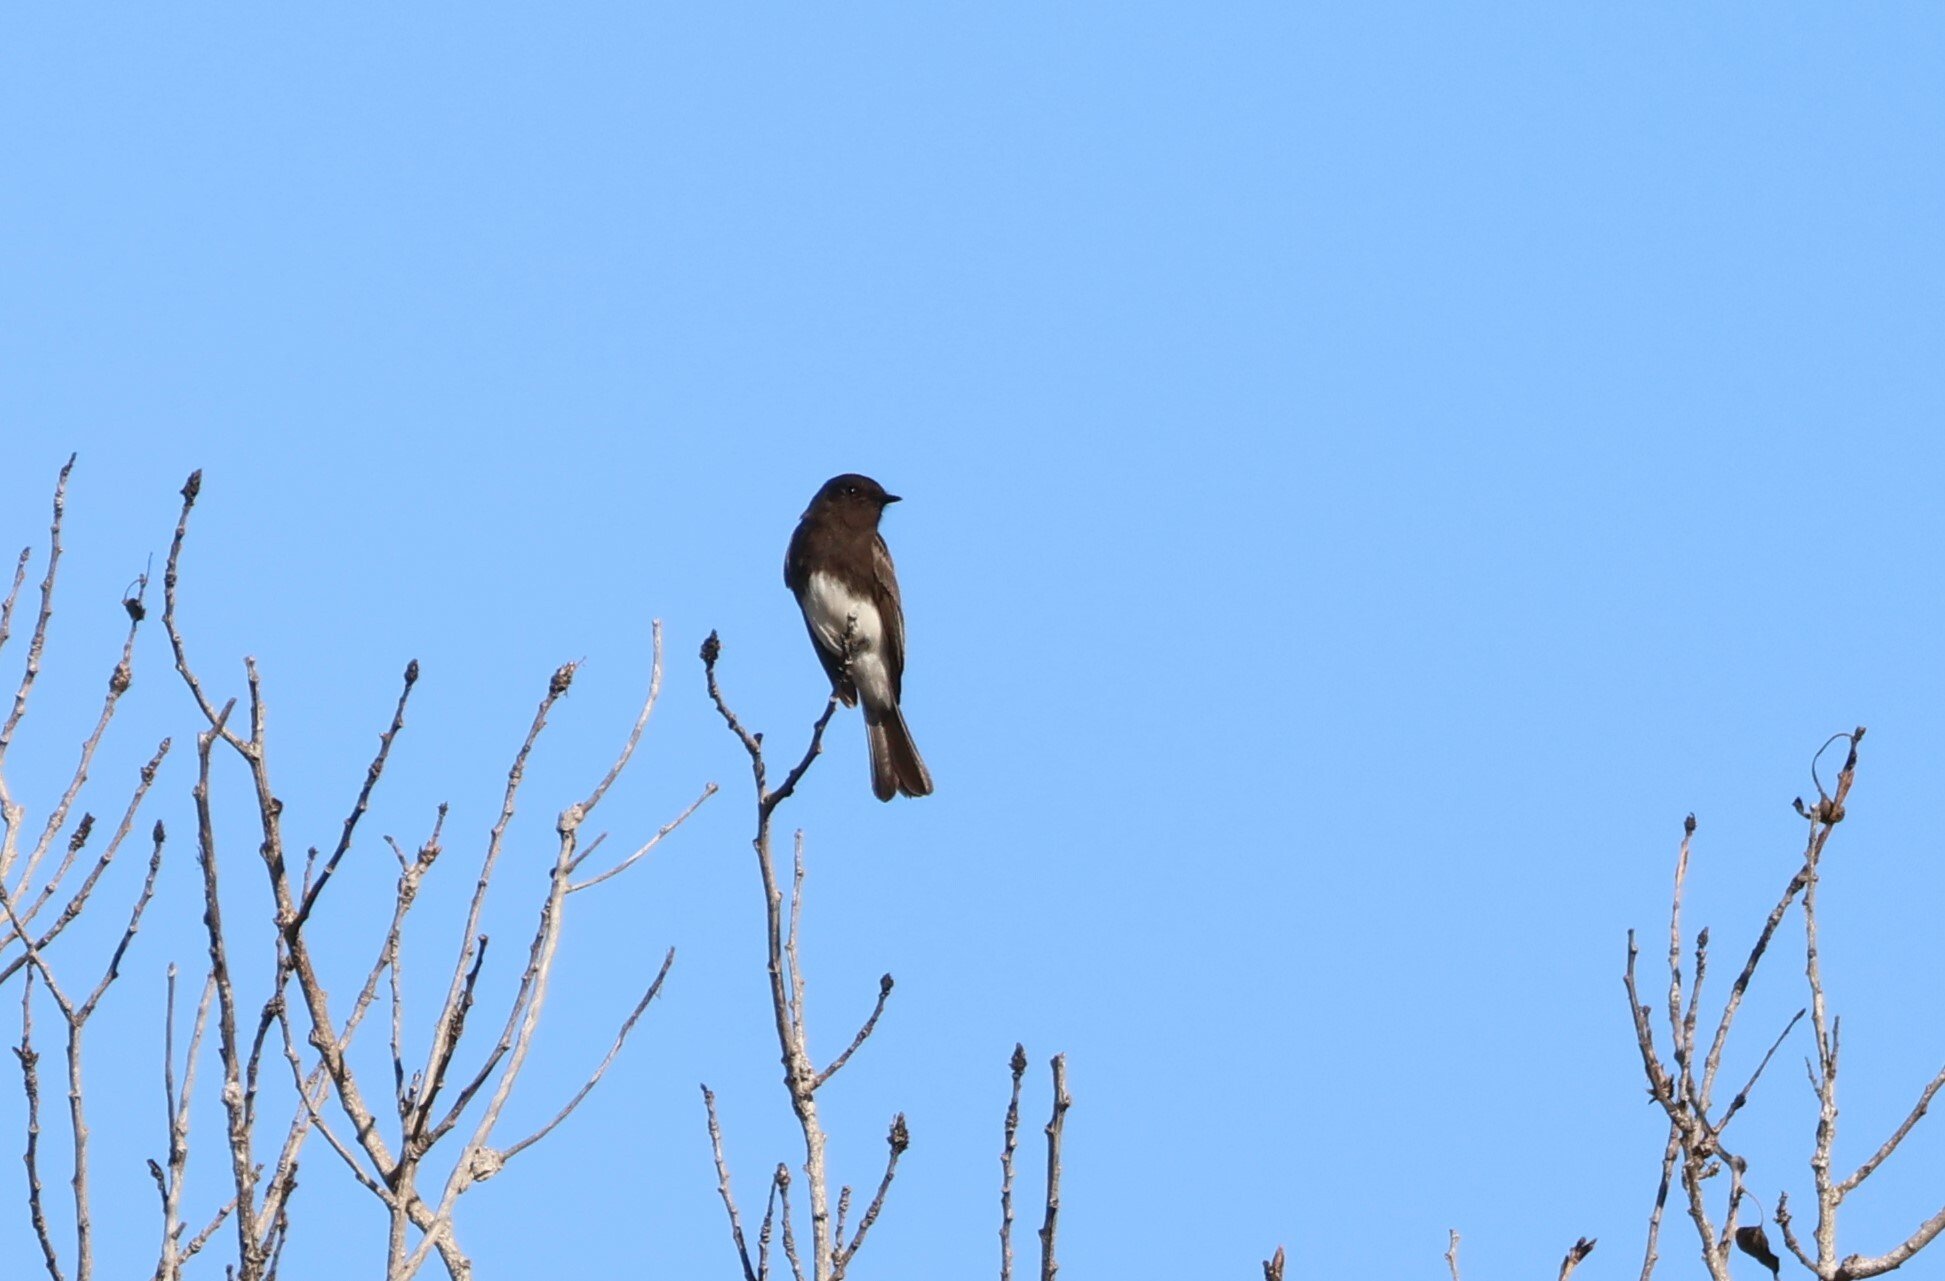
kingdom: Animalia
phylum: Chordata
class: Aves
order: Passeriformes
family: Tyrannidae
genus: Sayornis
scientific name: Sayornis nigricans
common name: Black phoebe
